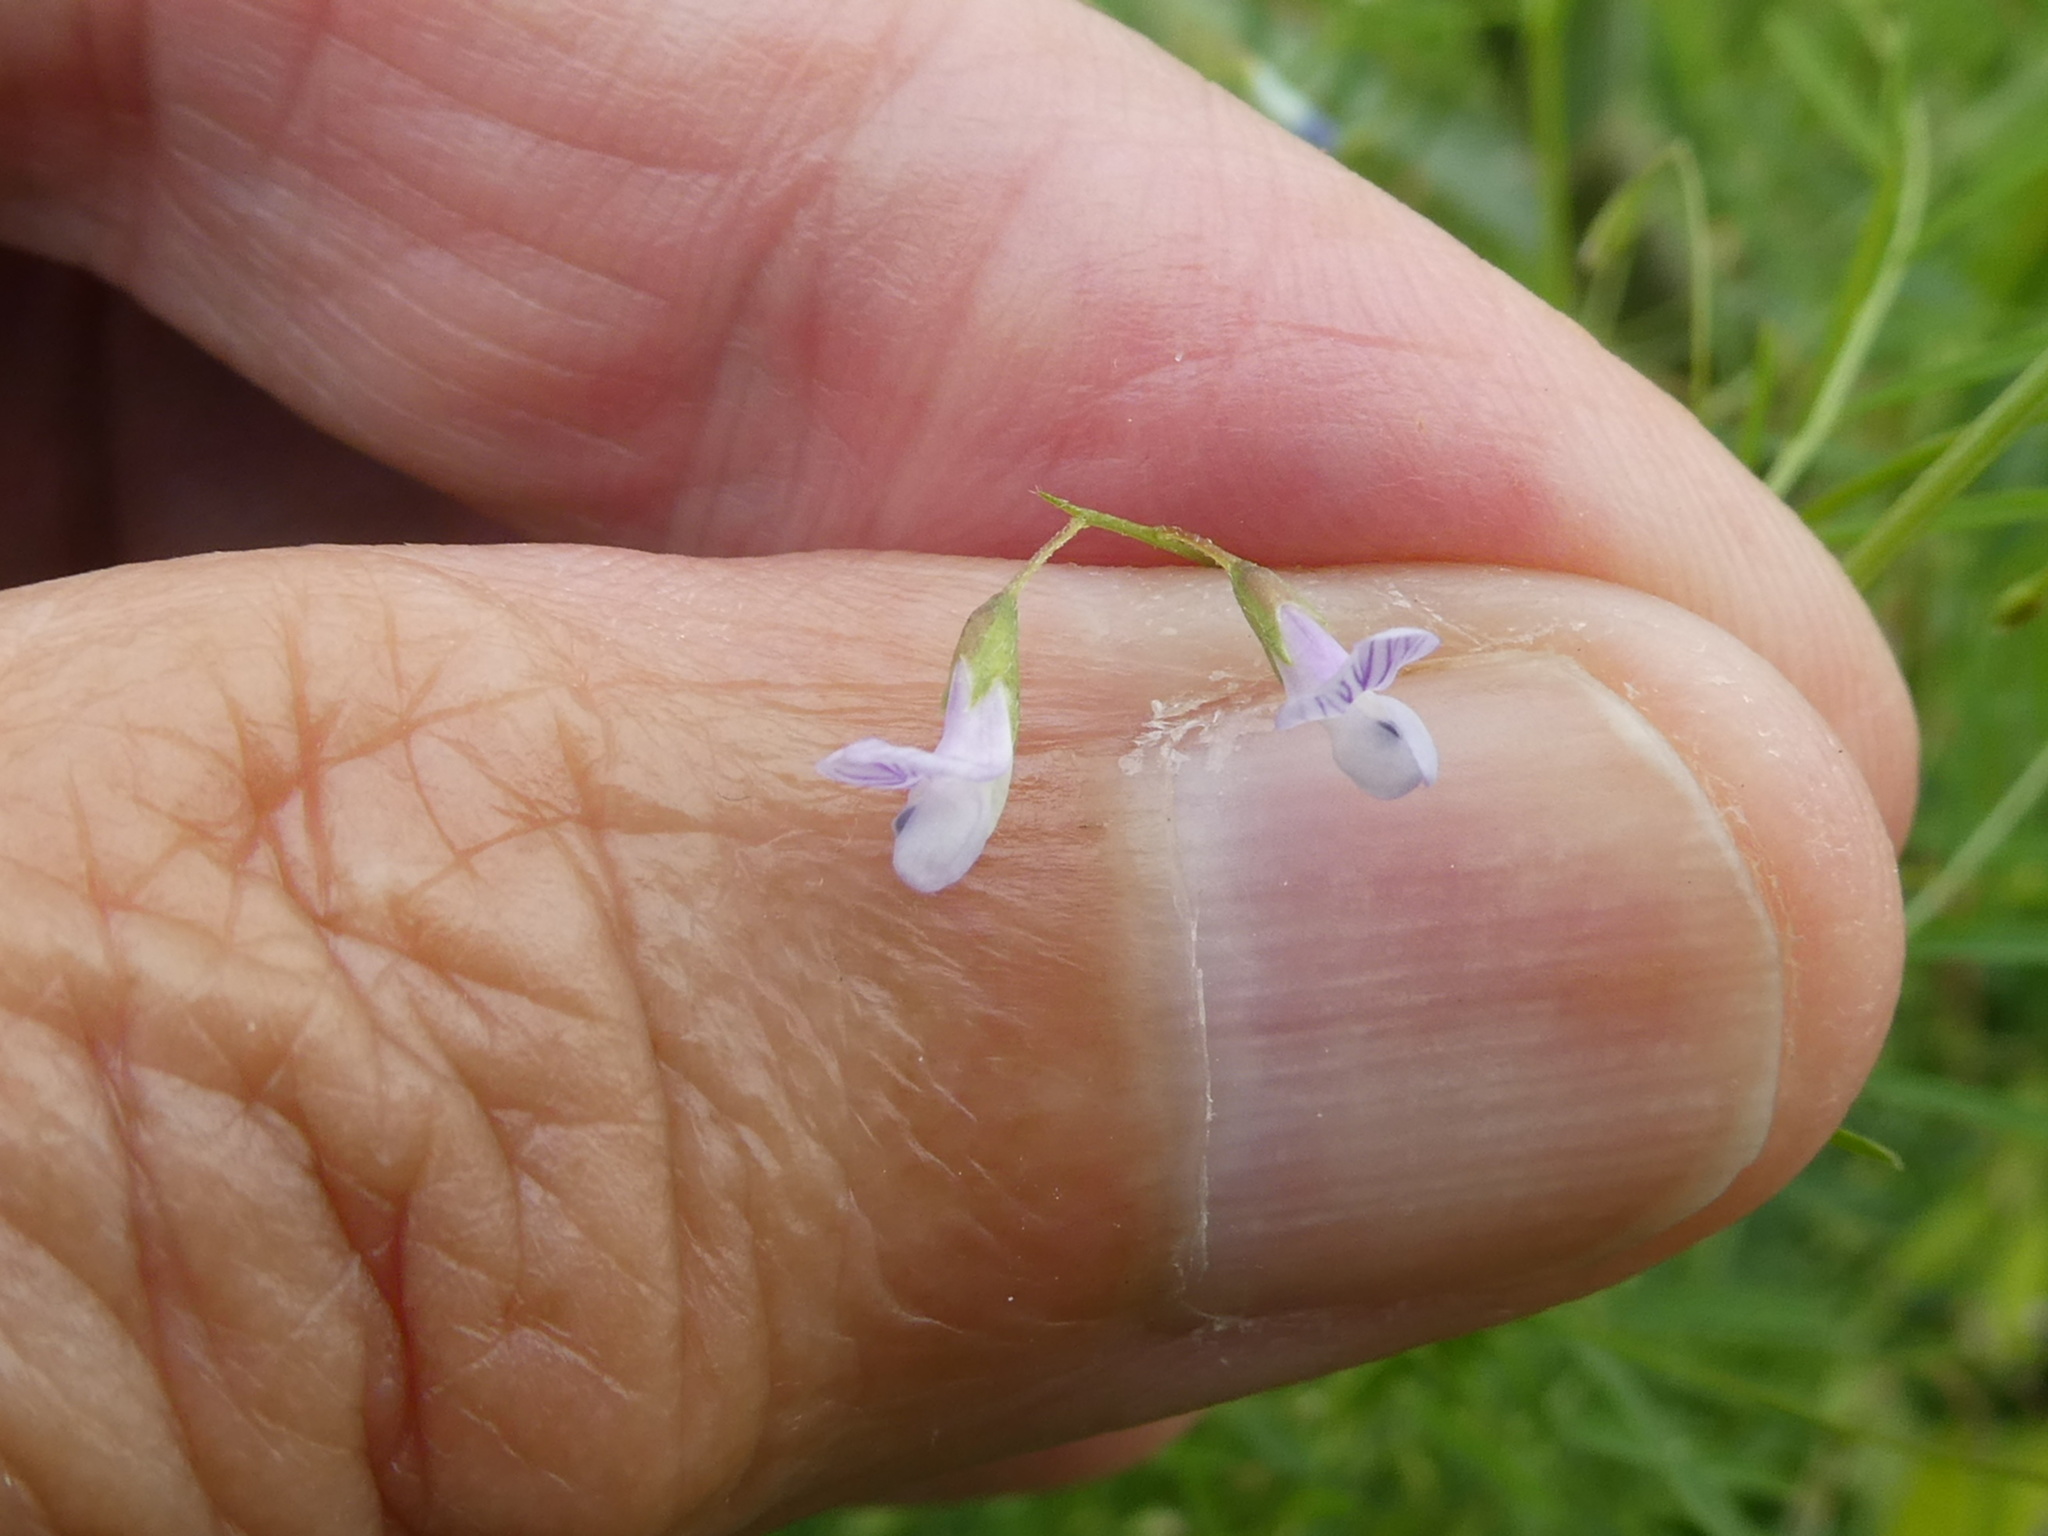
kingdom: Plantae
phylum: Tracheophyta
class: Magnoliopsida
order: Fabales
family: Fabaceae
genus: Vicia
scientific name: Vicia tetrasperma
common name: Smooth tare
